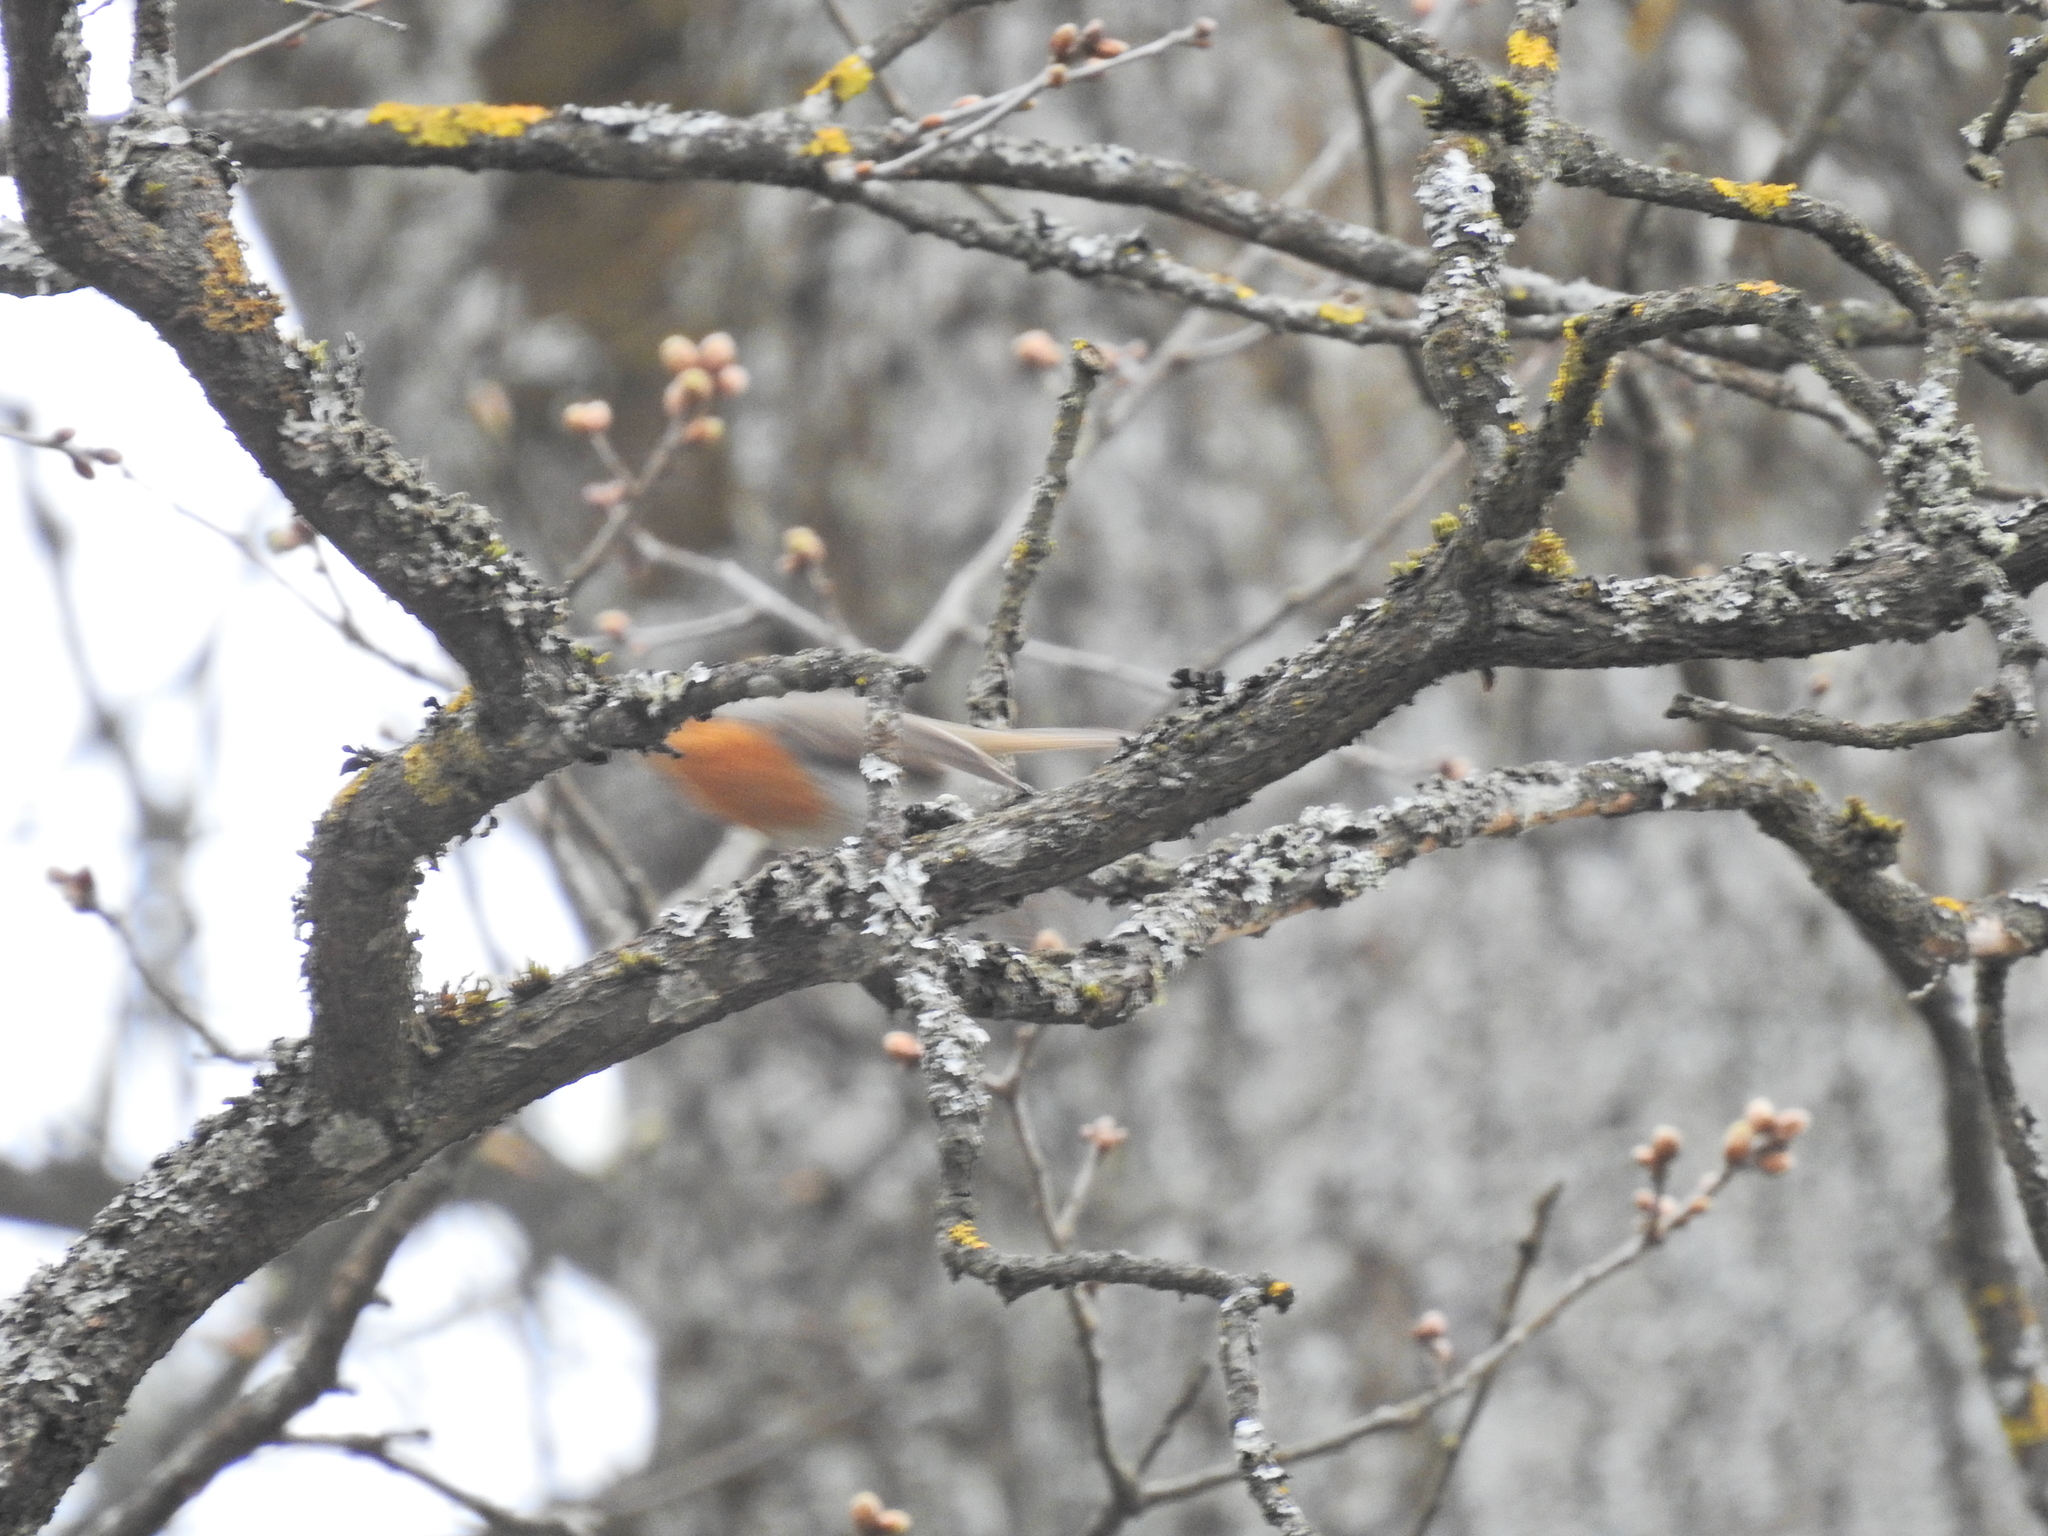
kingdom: Animalia
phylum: Chordata
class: Aves
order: Passeriformes
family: Muscicapidae
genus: Erithacus
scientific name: Erithacus rubecula
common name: European robin
